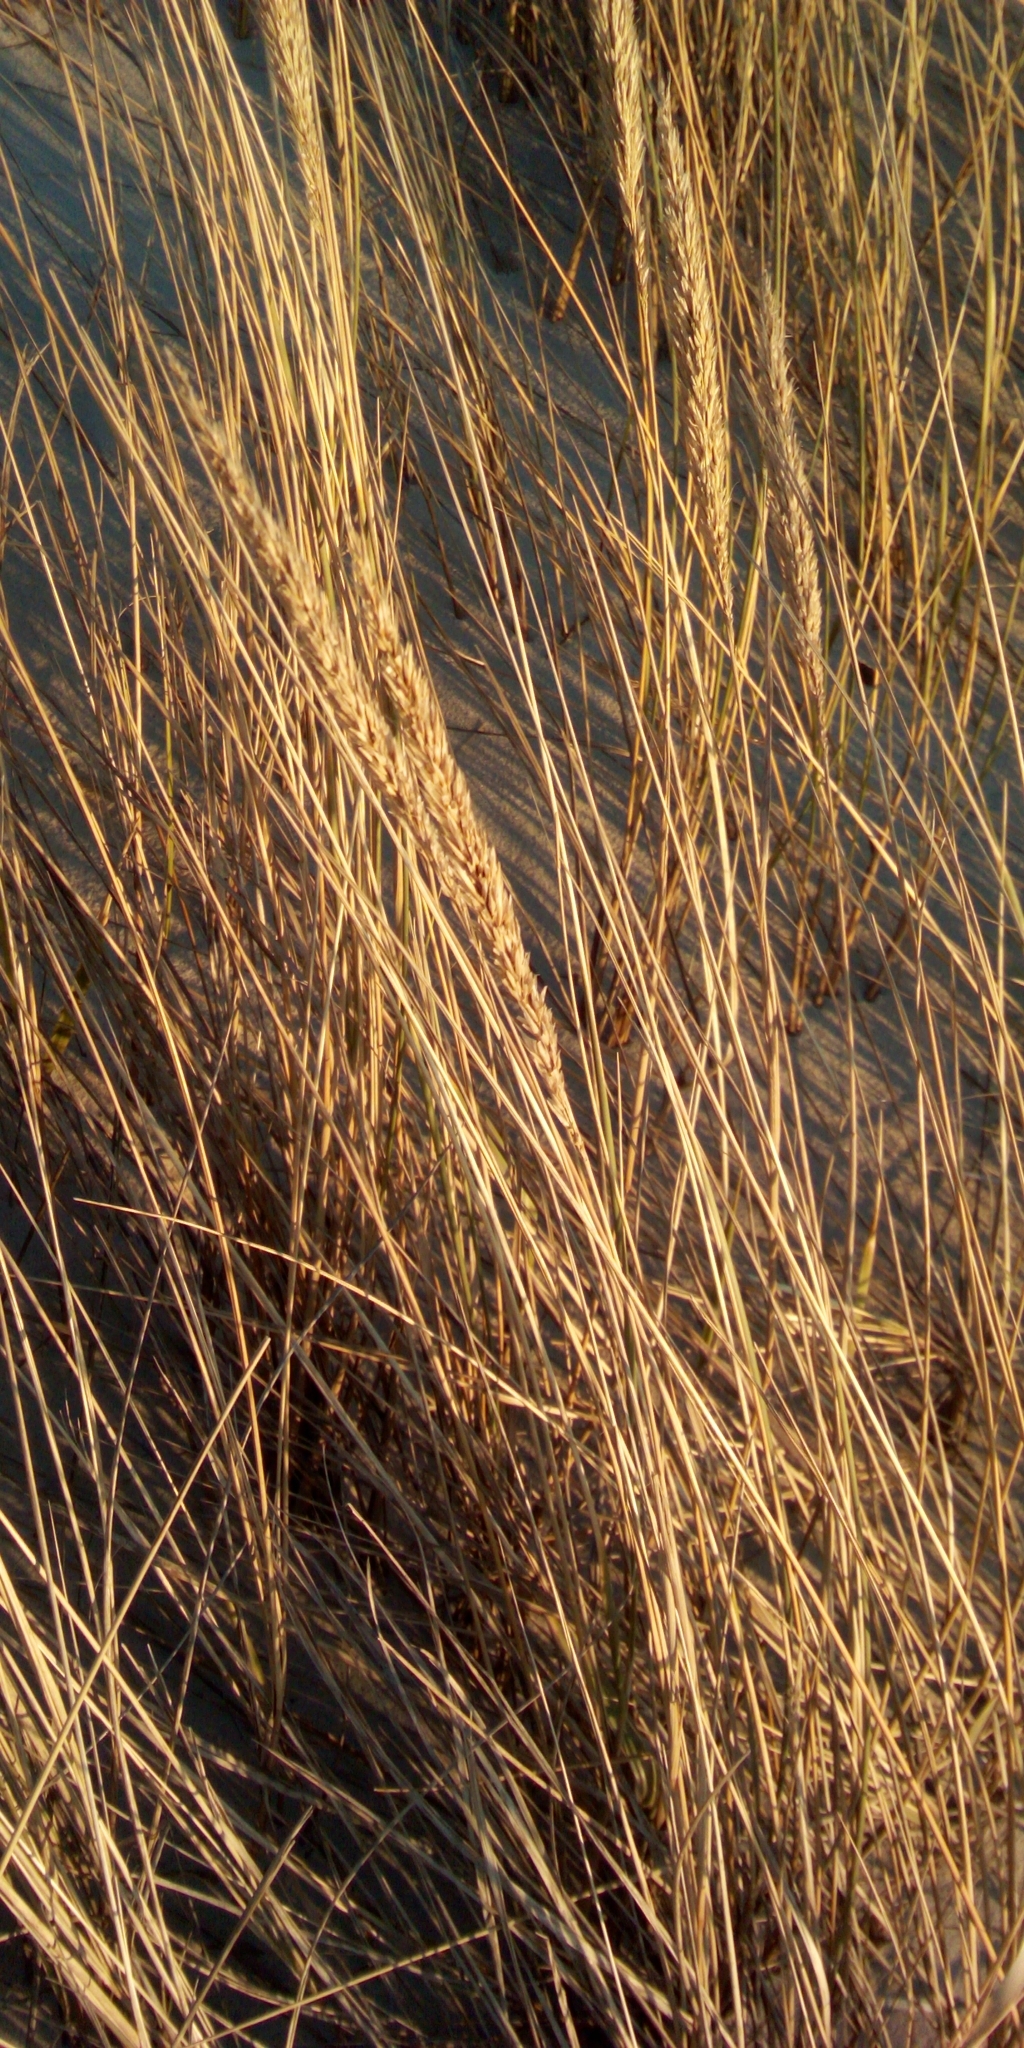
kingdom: Plantae
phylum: Tracheophyta
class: Liliopsida
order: Poales
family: Poaceae
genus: Calamagrostis
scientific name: Calamagrostis arenaria
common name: European beachgrass
